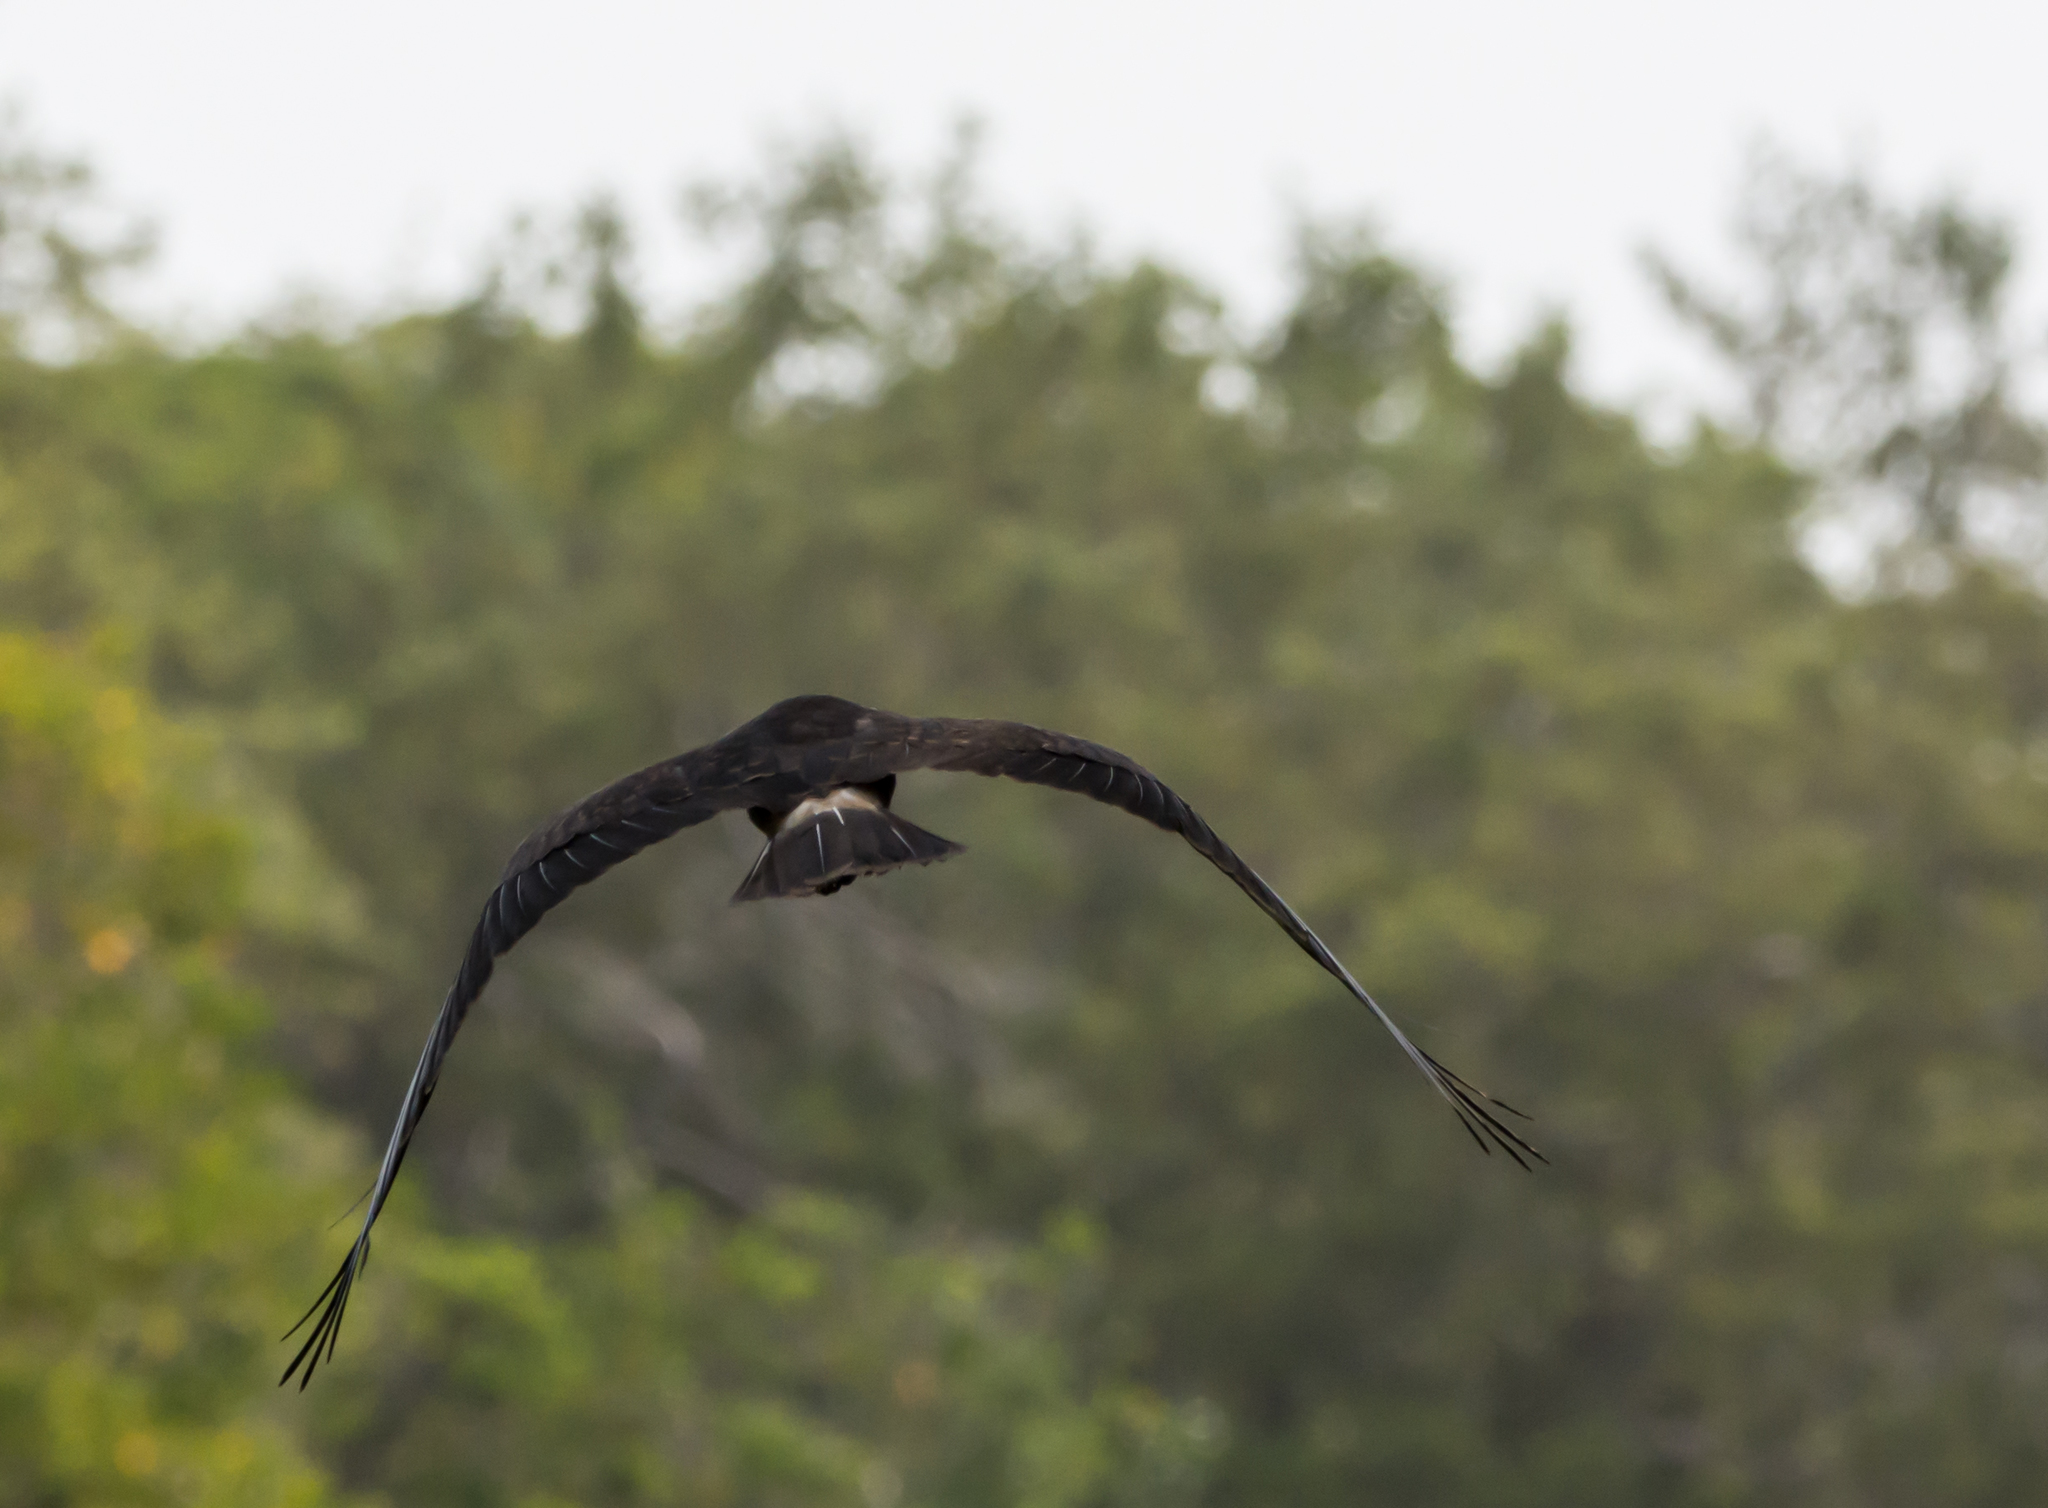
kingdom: Animalia
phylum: Chordata
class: Aves
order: Accipitriformes
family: Accipitridae
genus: Rostrhamus
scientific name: Rostrhamus sociabilis
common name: Snail kite
